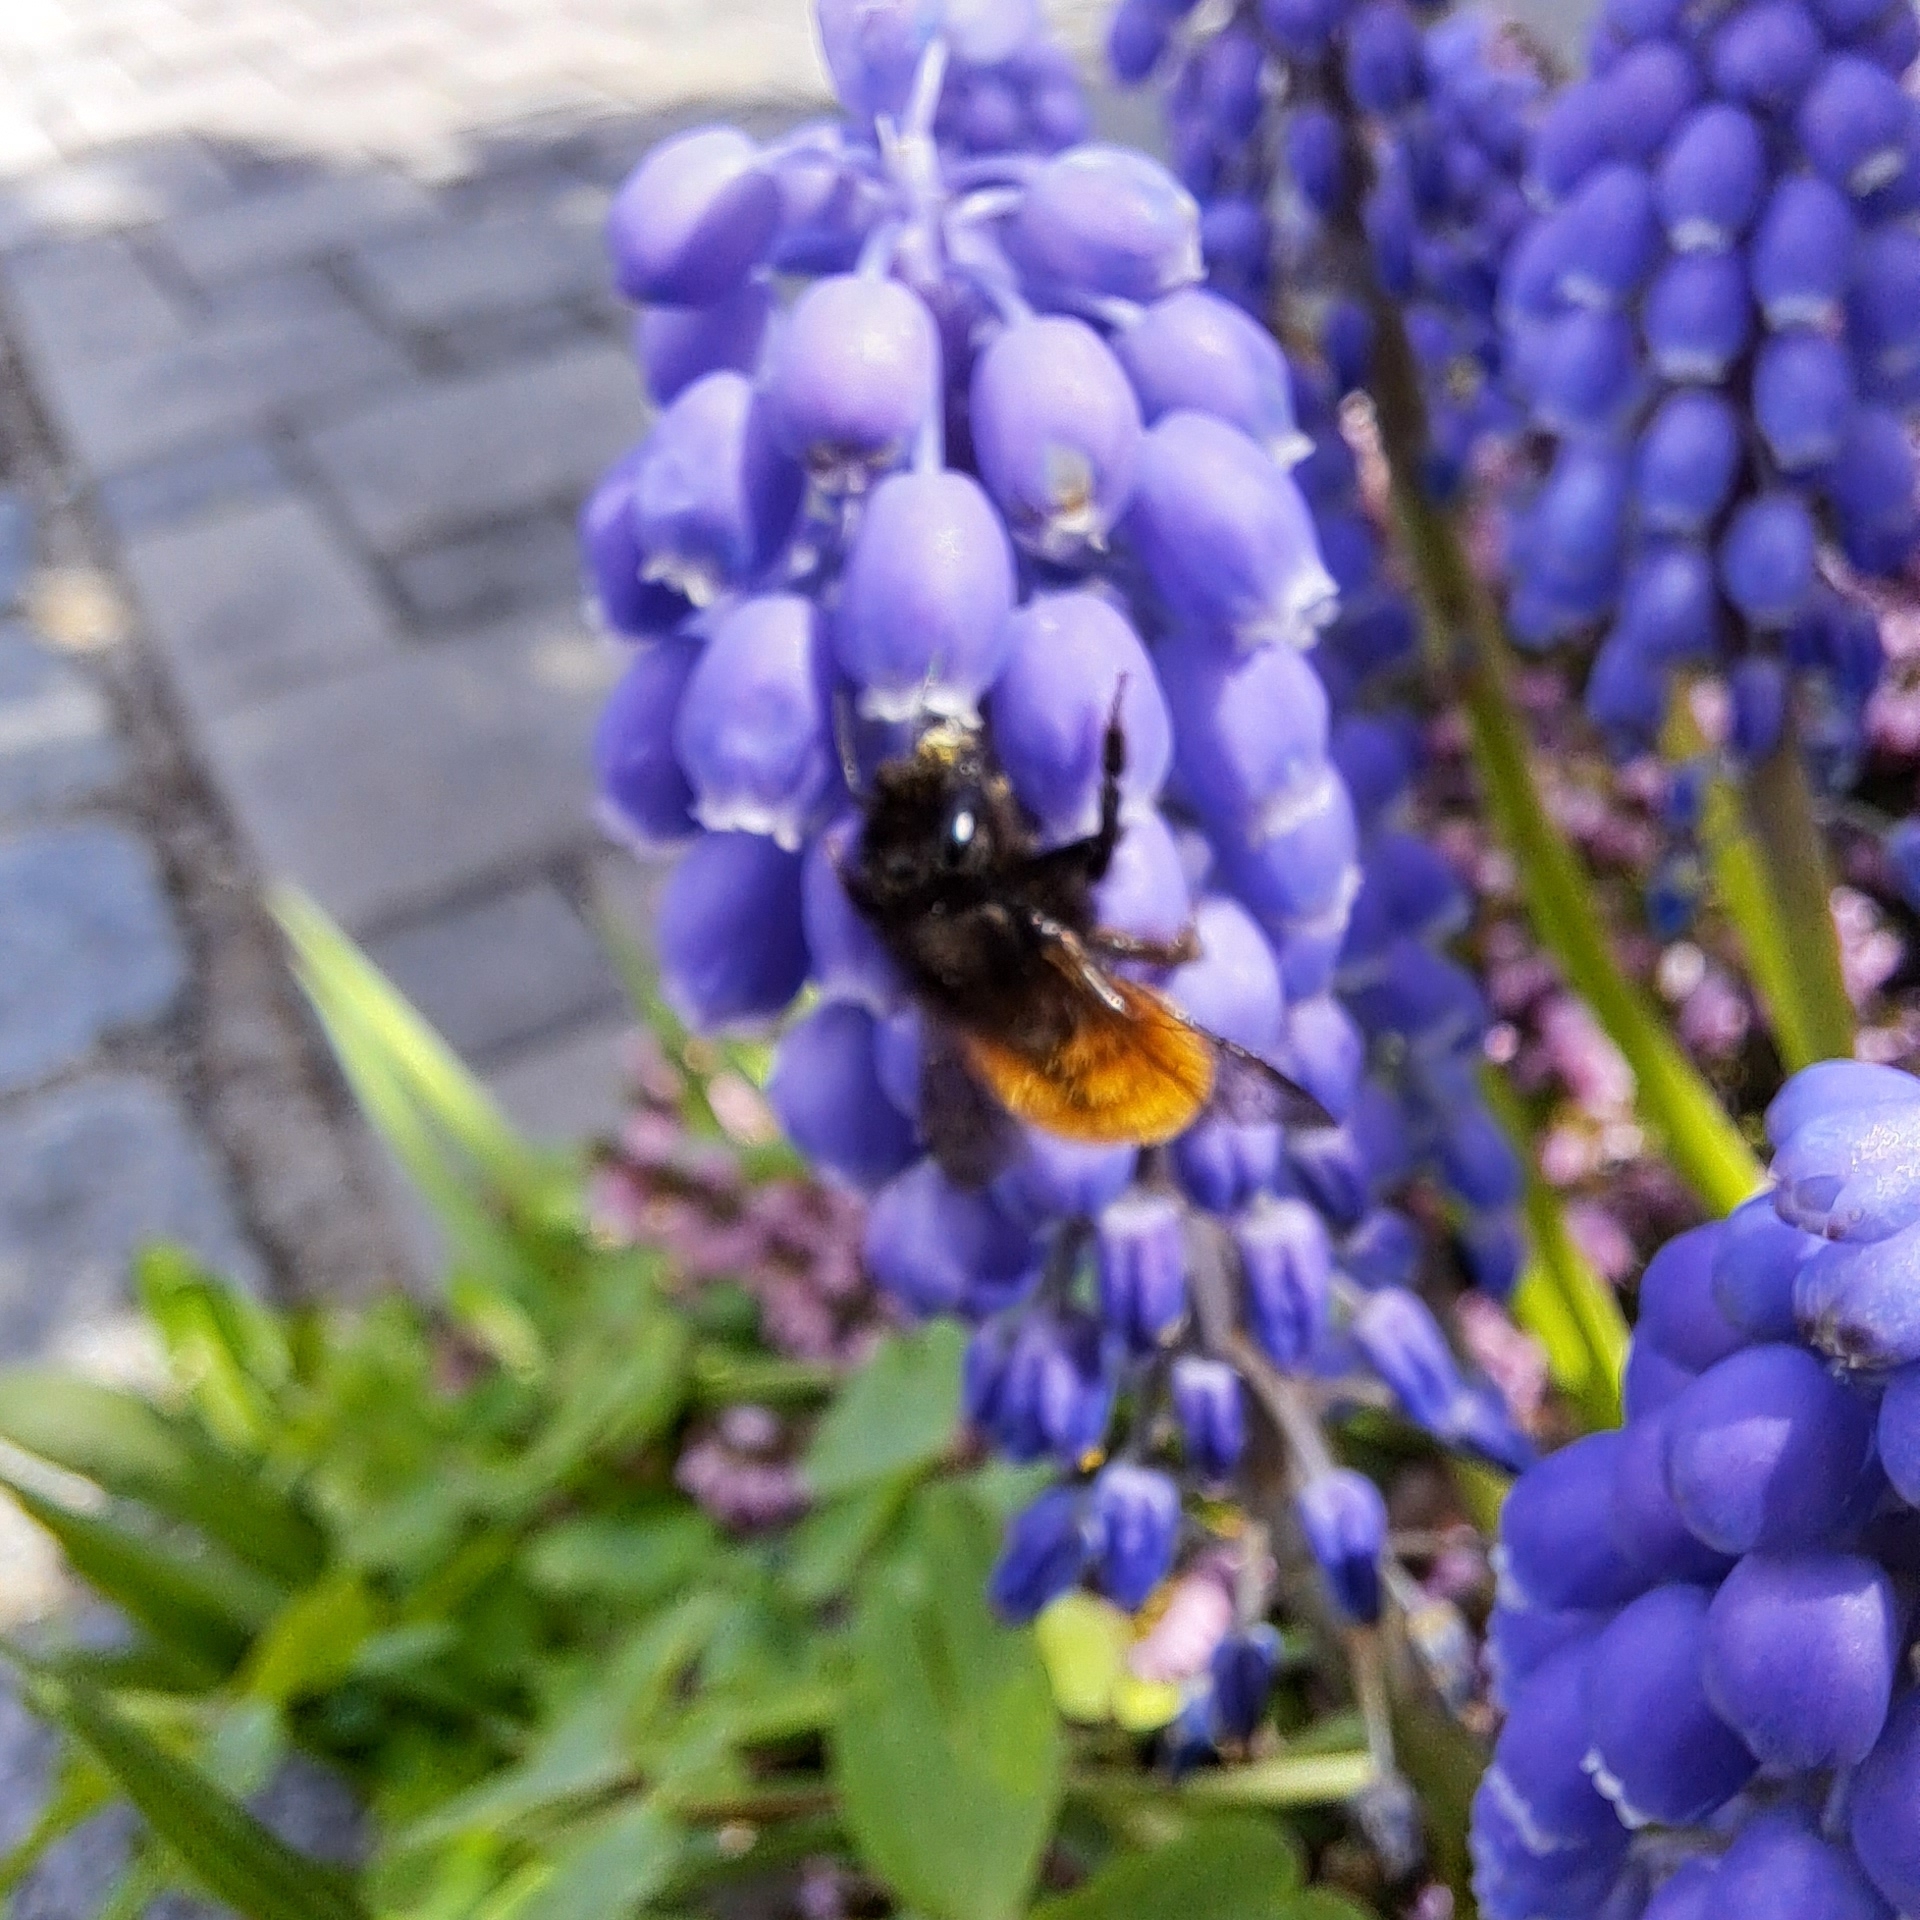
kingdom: Animalia
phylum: Arthropoda
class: Insecta
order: Hymenoptera
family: Megachilidae
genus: Osmia
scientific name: Osmia cornuta
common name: Mason bee
